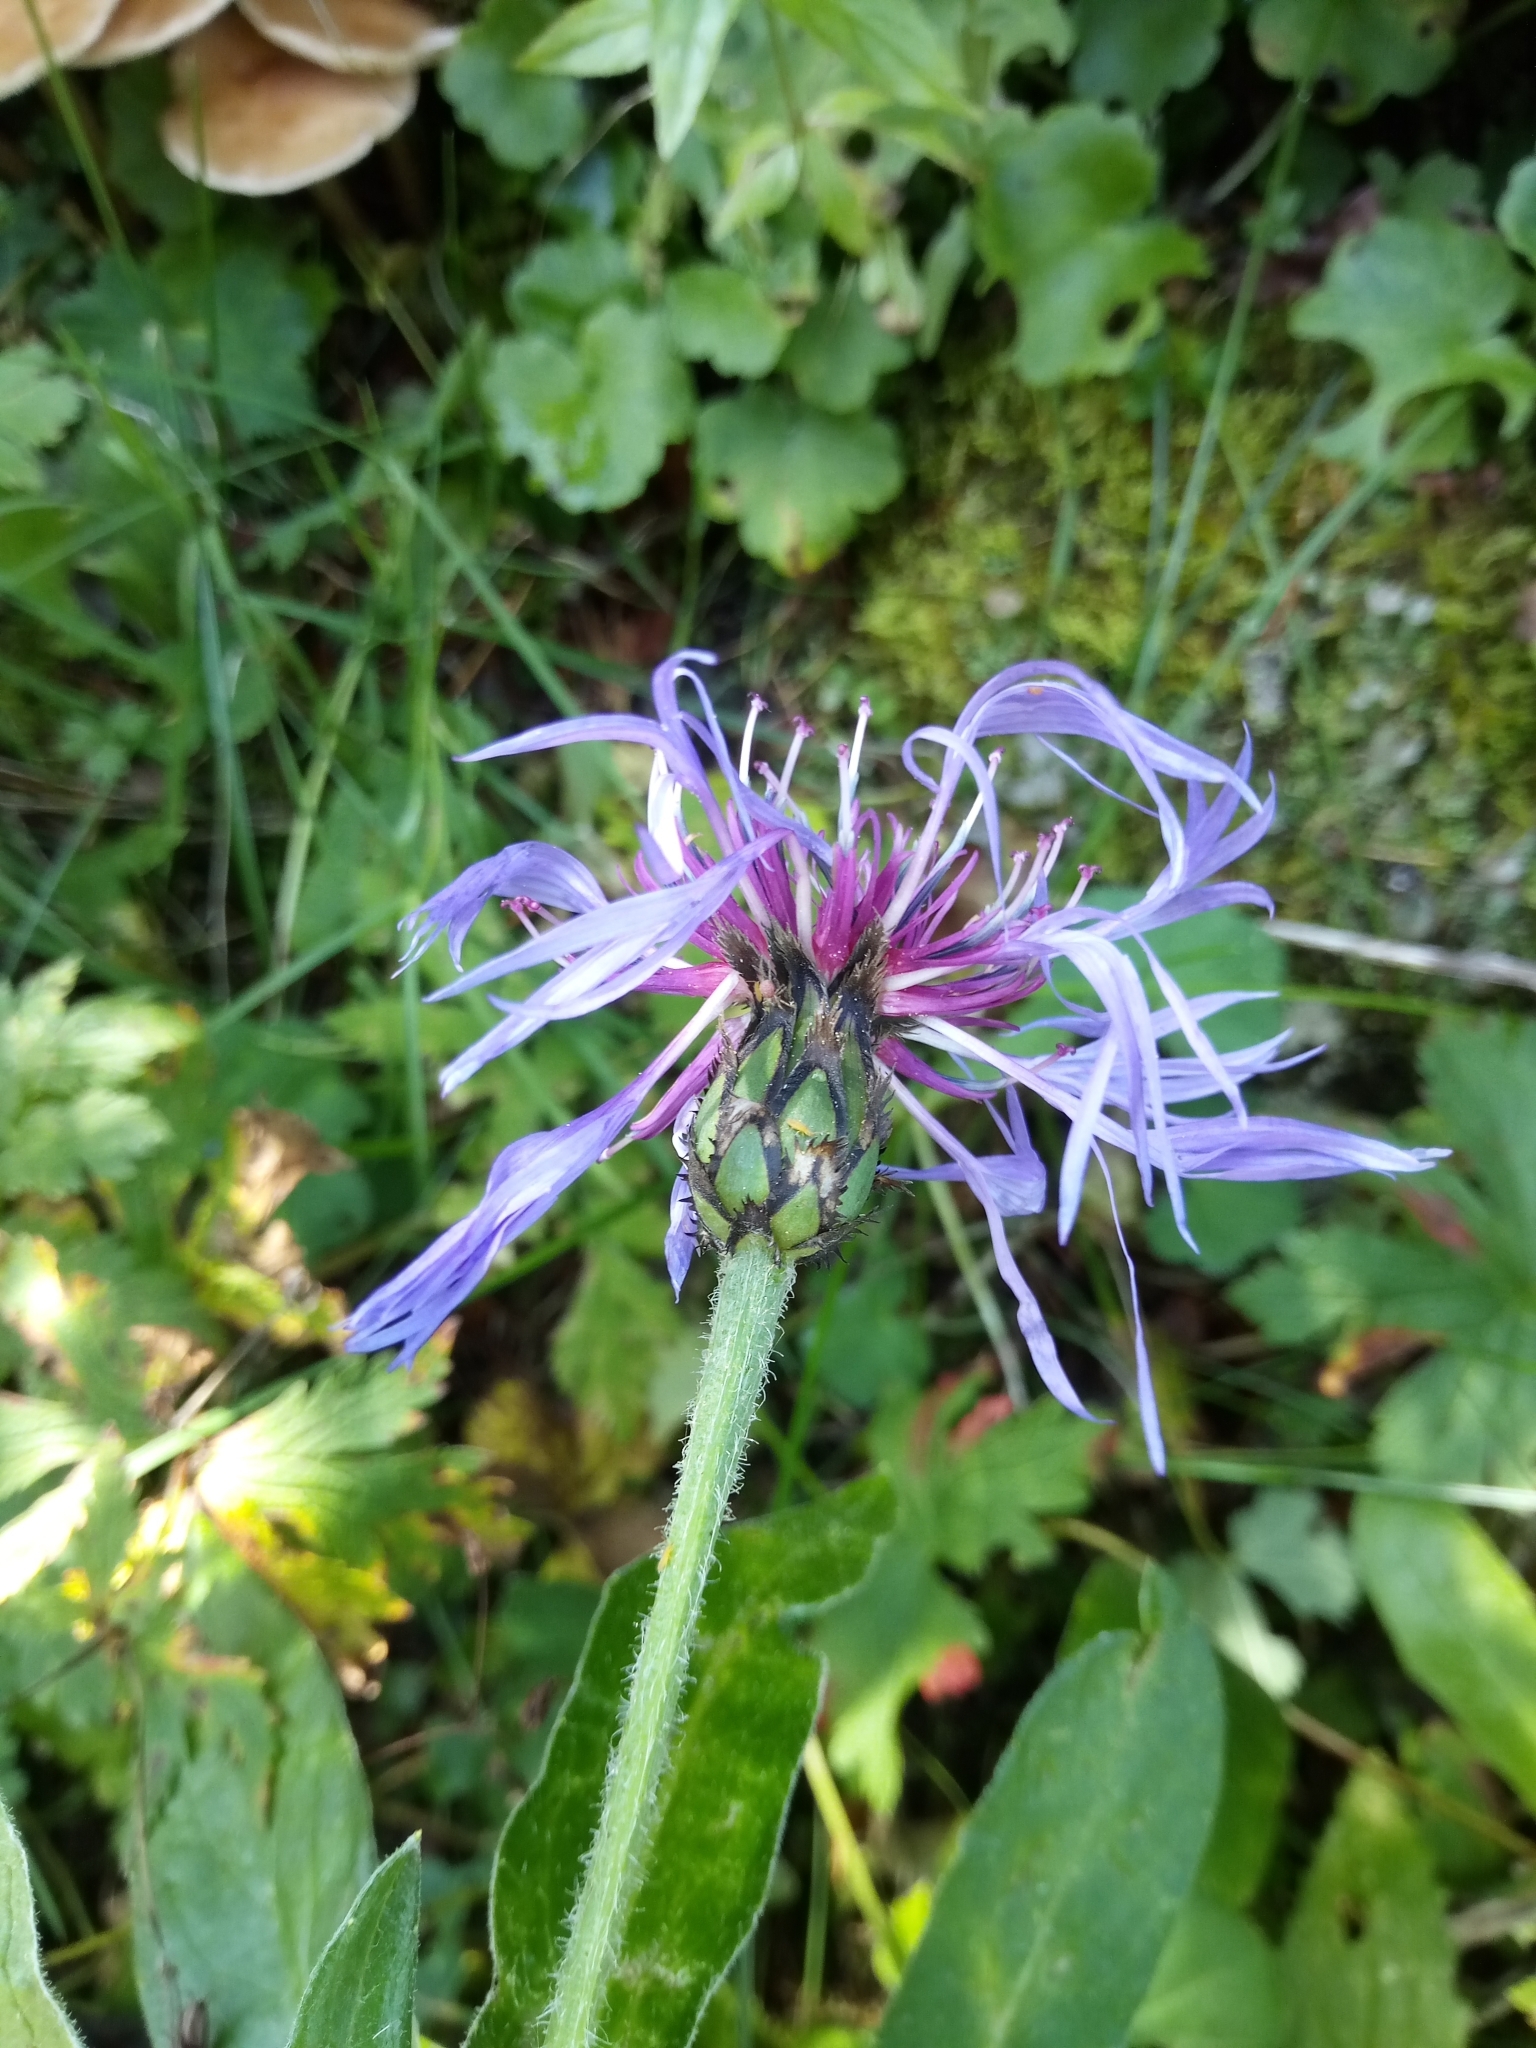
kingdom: Plantae
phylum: Tracheophyta
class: Magnoliopsida
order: Asterales
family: Asteraceae
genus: Centaurea
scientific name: Centaurea montana
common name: Perennial cornflower
